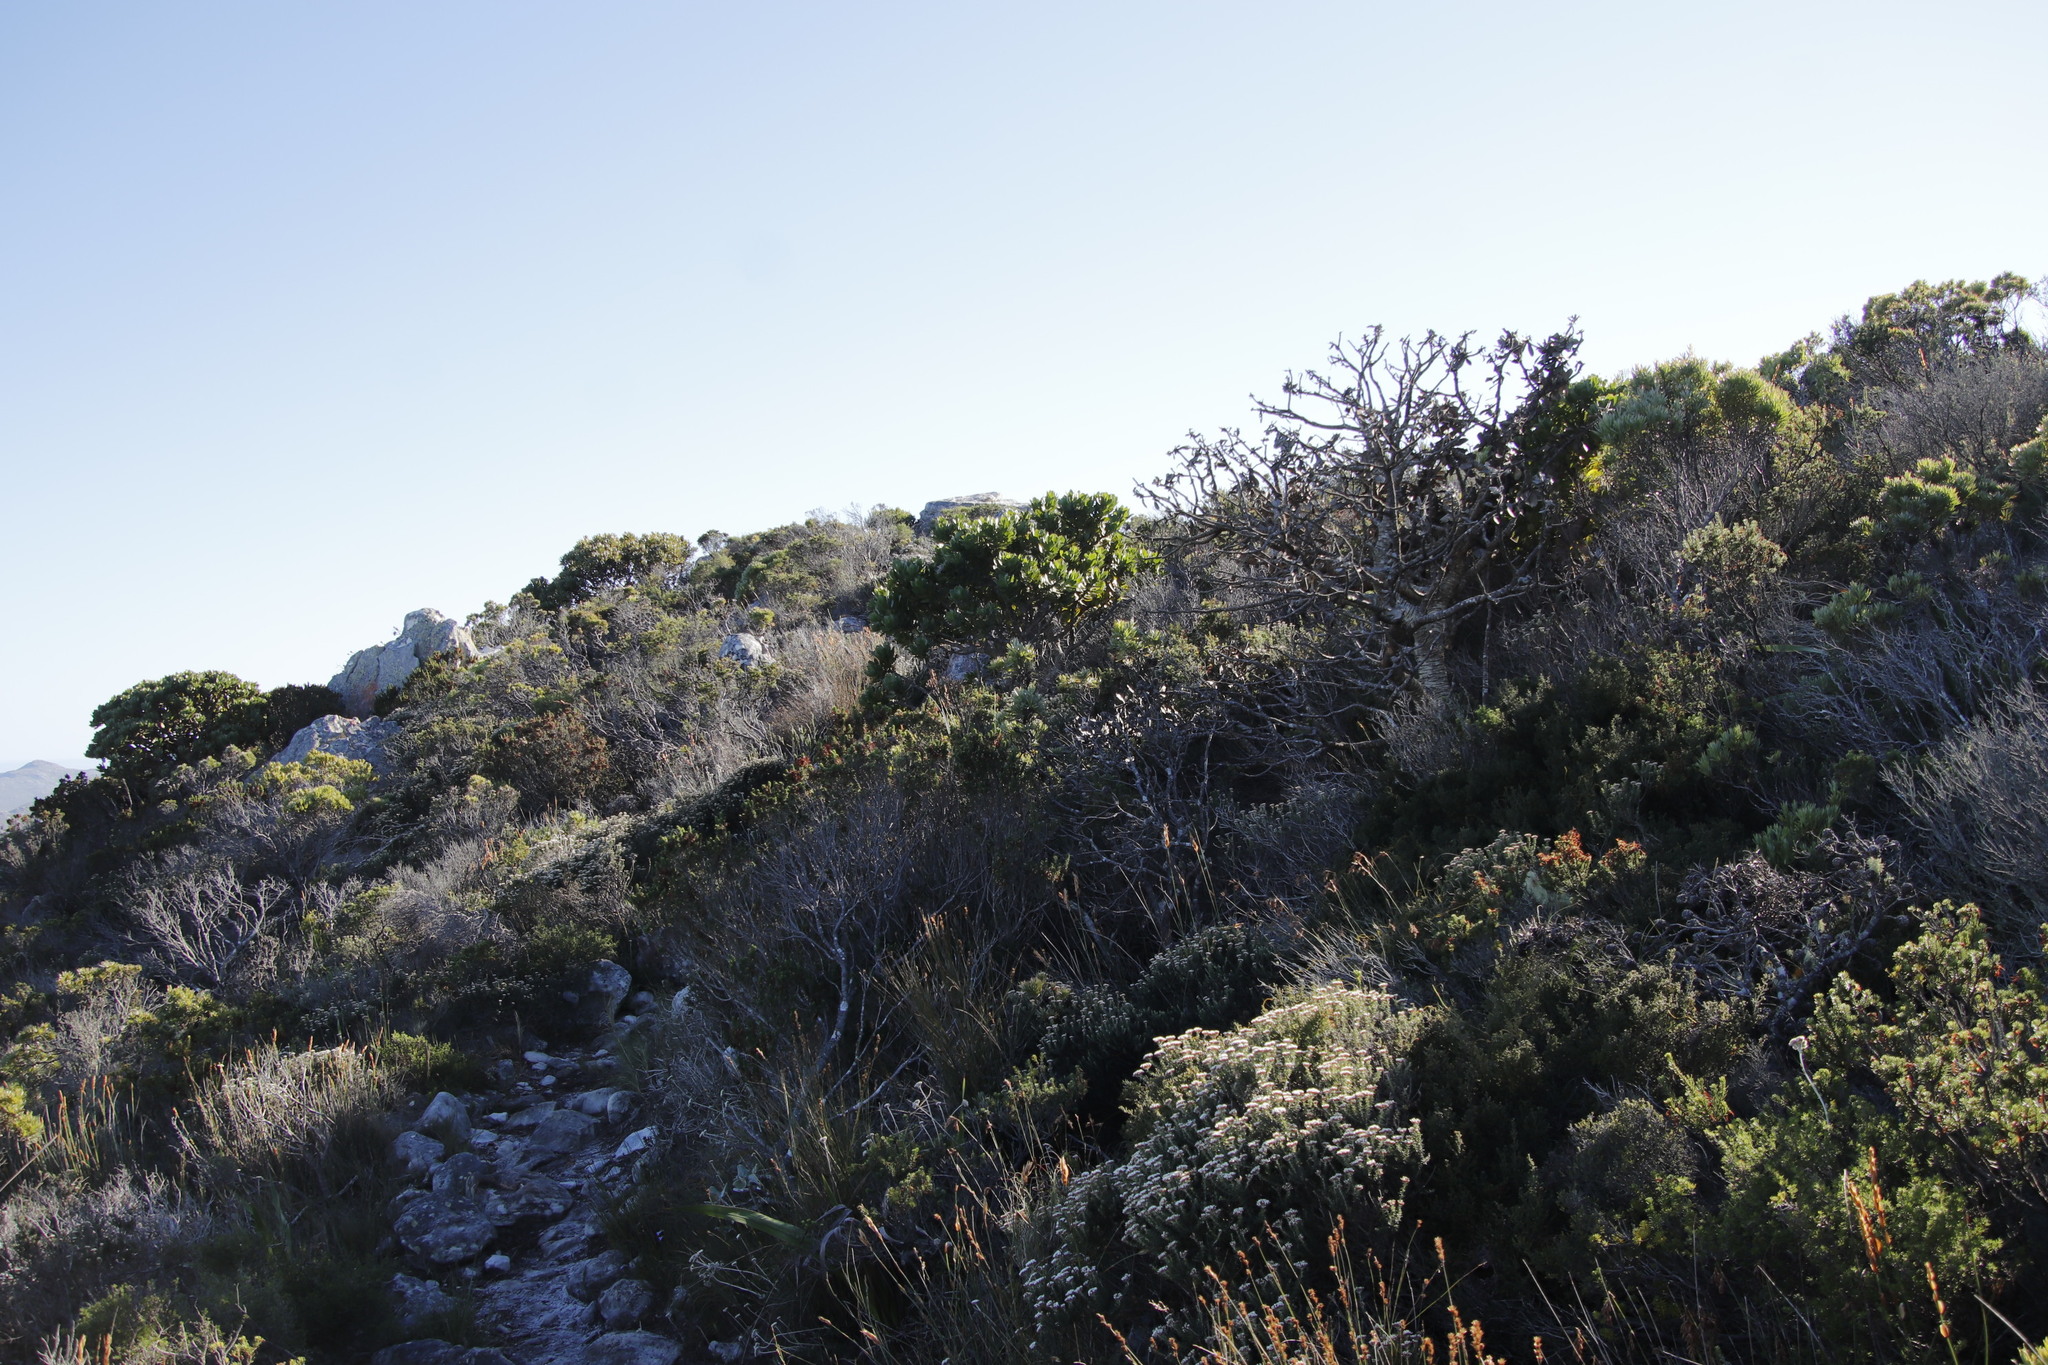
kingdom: Plantae
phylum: Tracheophyta
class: Magnoliopsida
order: Proteales
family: Proteaceae
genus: Leucospermum
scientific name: Leucospermum conocarpodendron
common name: Tree pincushion
